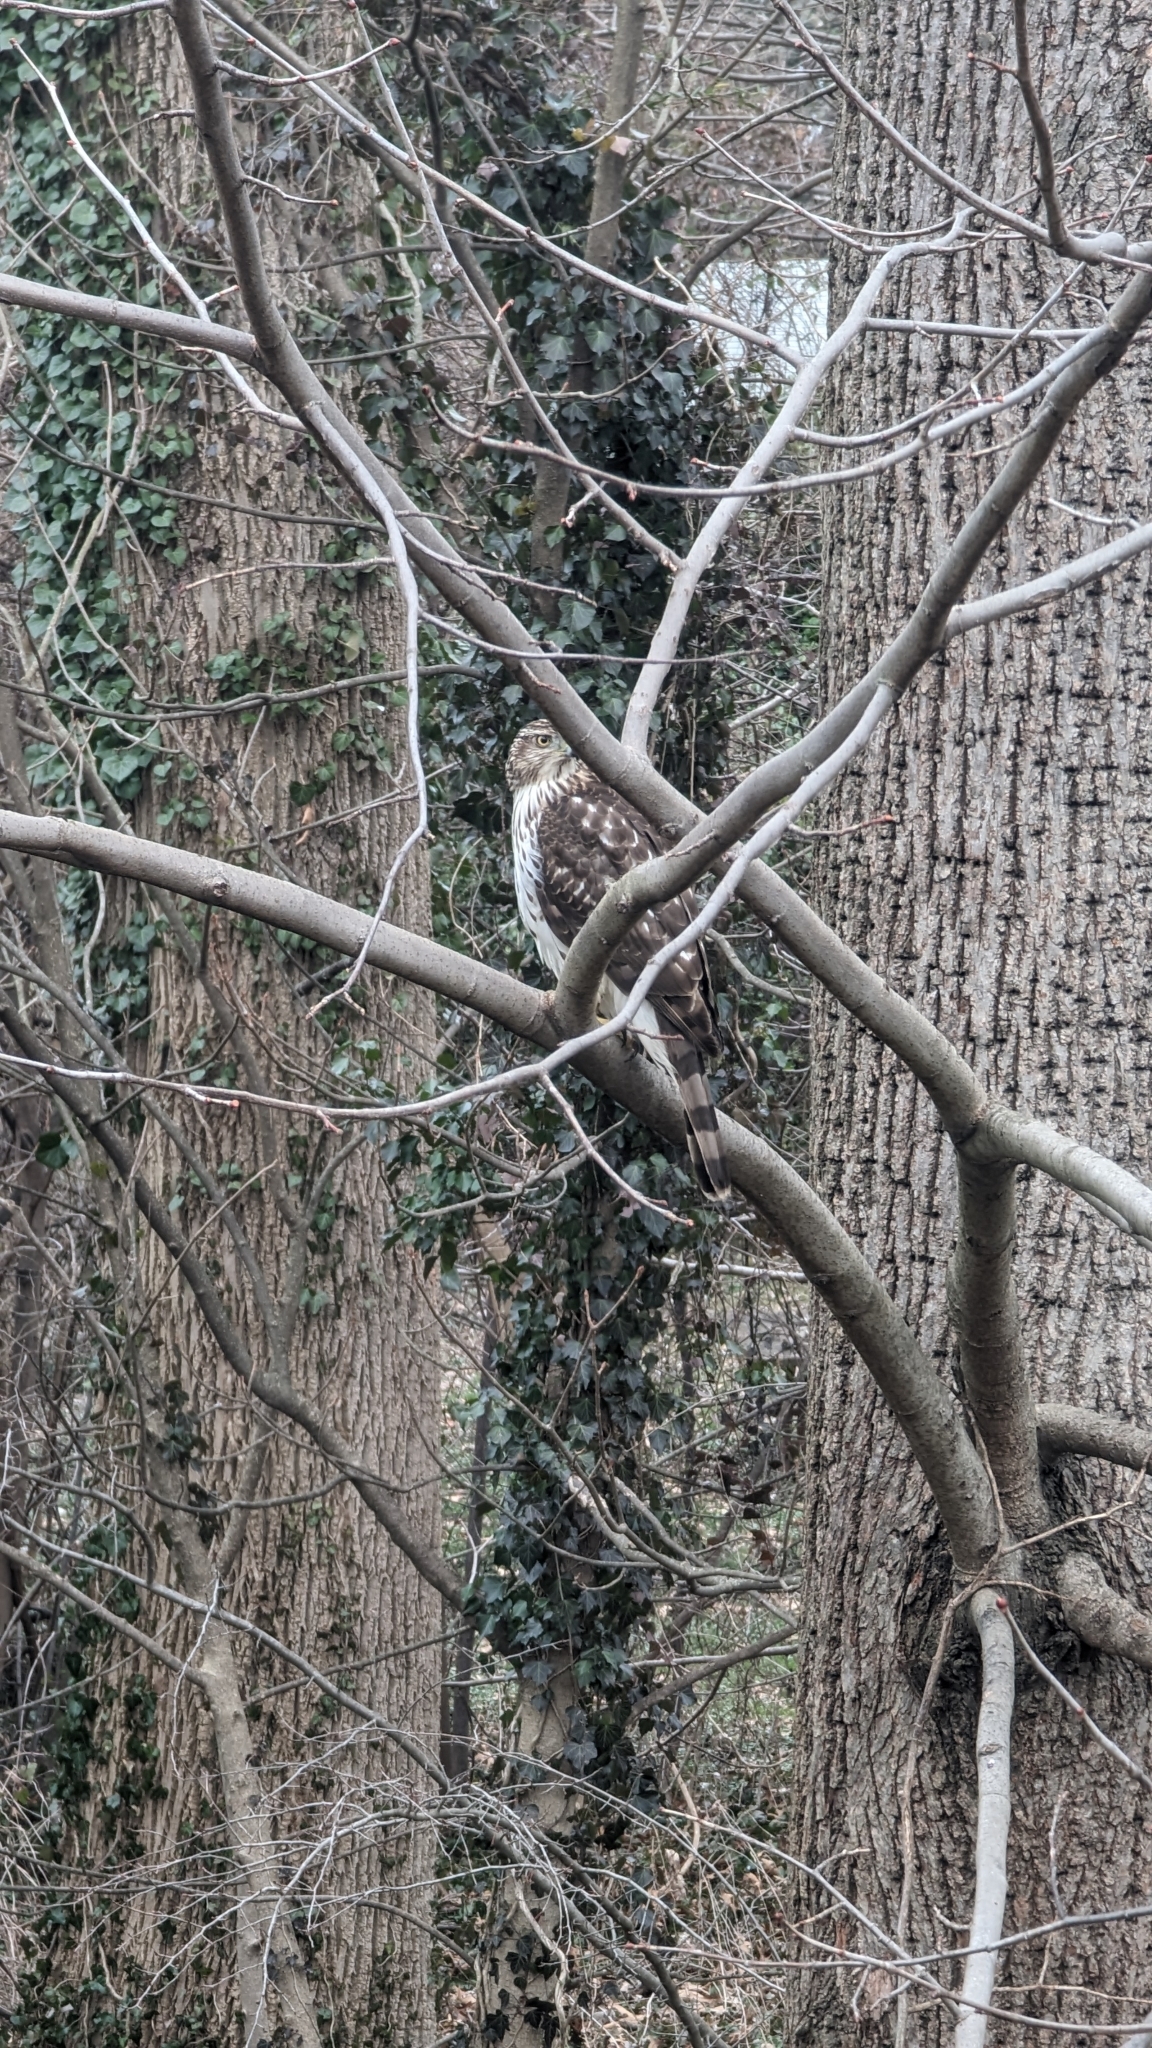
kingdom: Animalia
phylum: Chordata
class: Aves
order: Accipitriformes
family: Accipitridae
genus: Accipiter
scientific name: Accipiter cooperii
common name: Cooper's hawk
